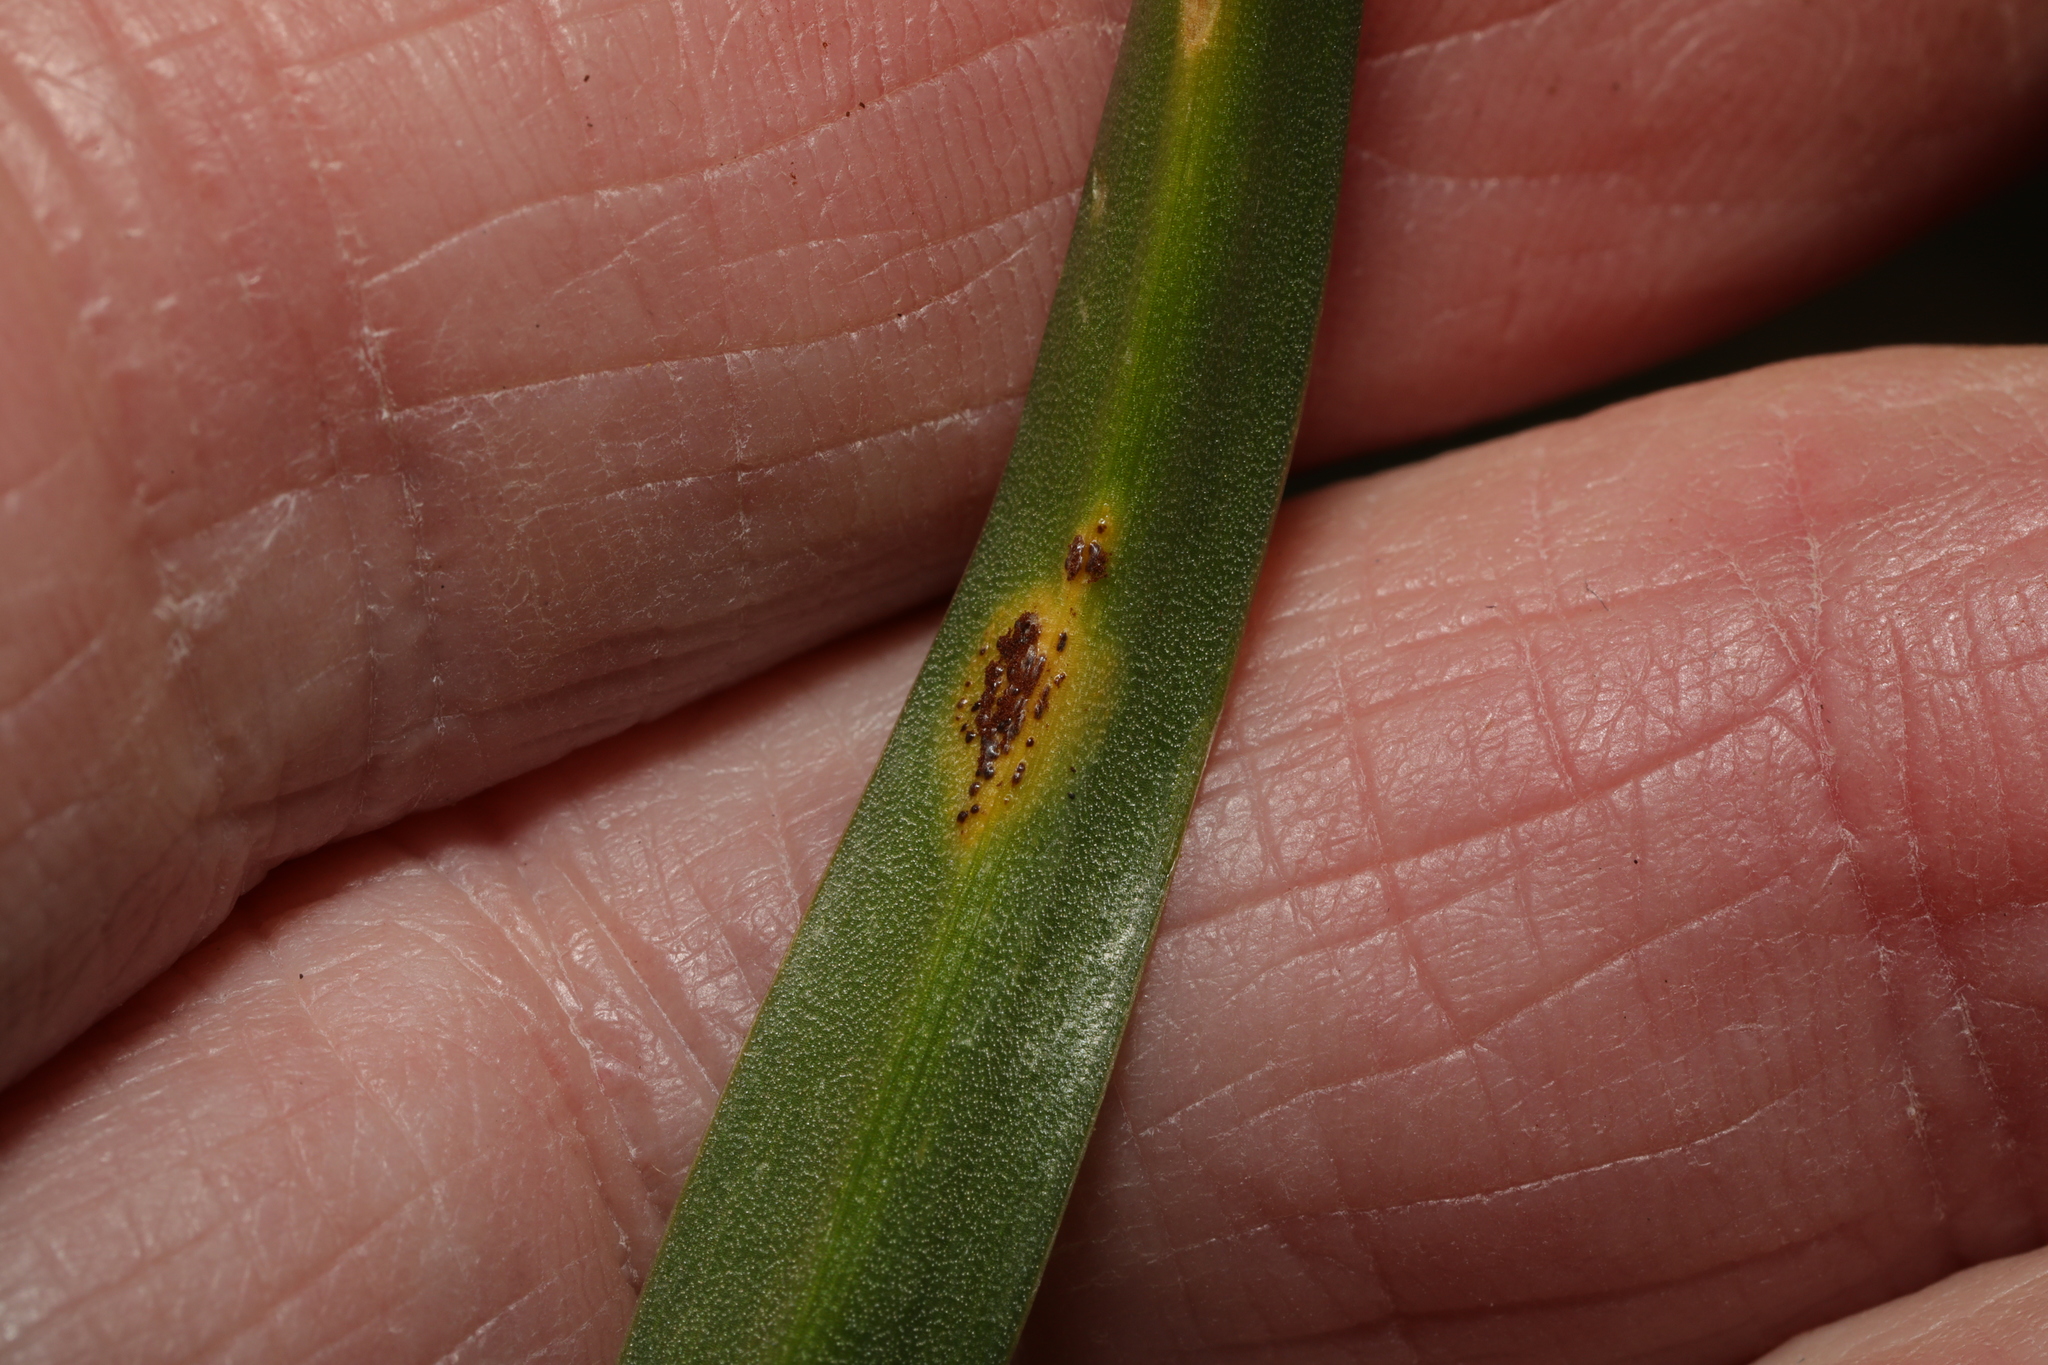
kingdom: Fungi
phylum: Basidiomycota
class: Pucciniomycetes
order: Pucciniales
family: Pucciniaceae
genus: Uromyces
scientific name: Uromyces hyacinthi
